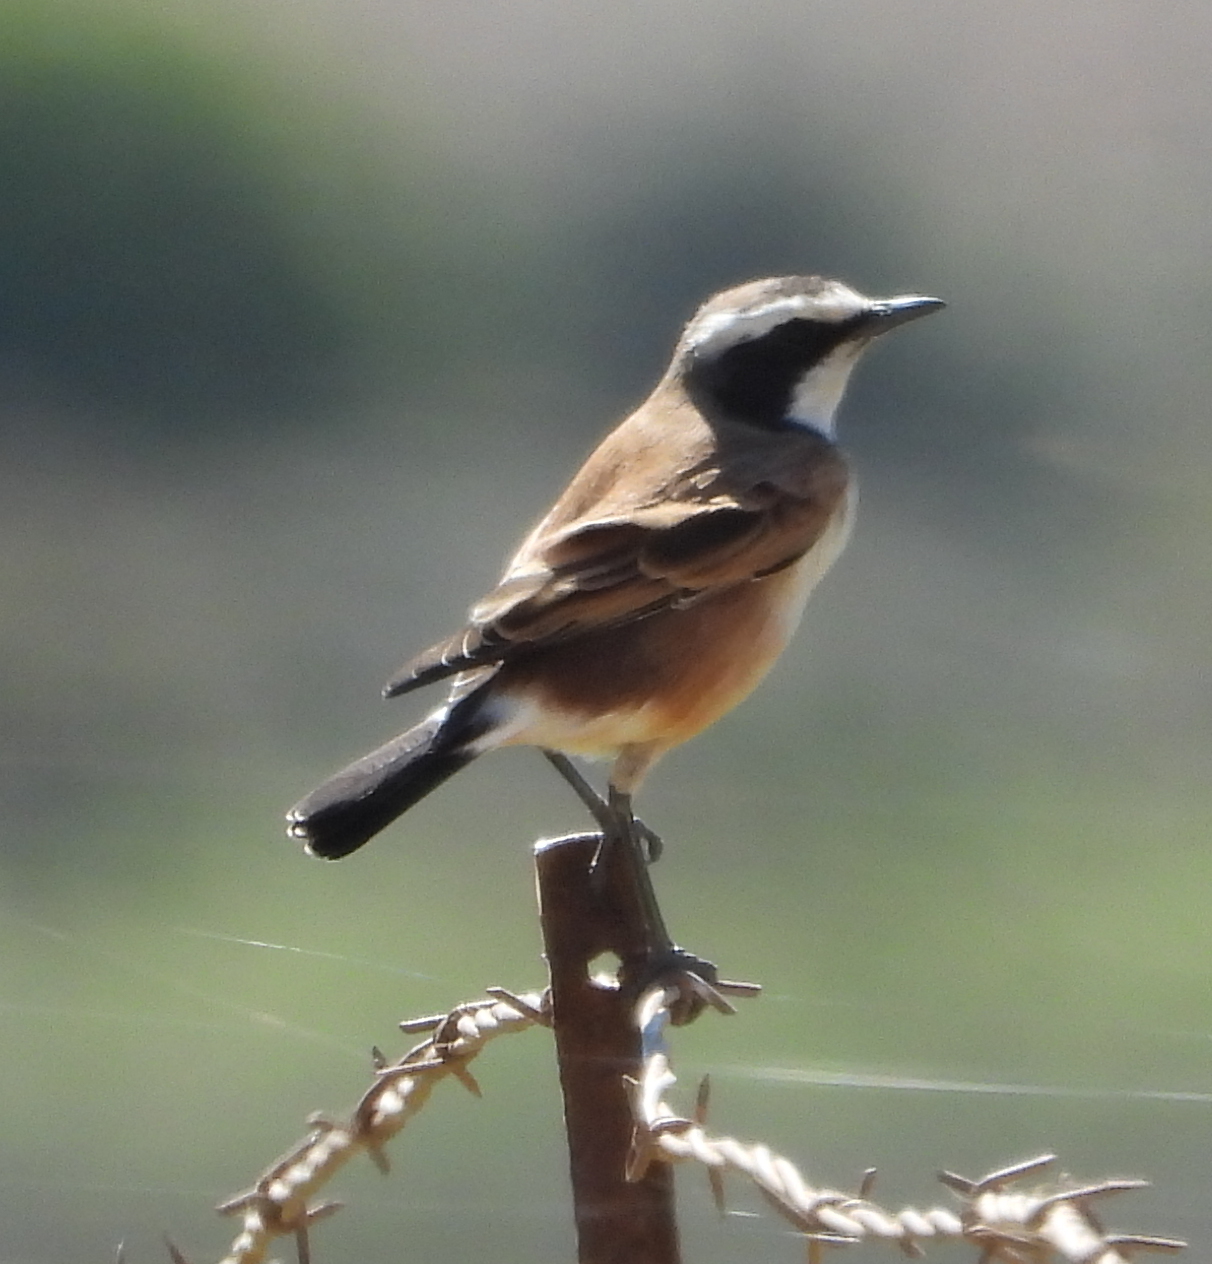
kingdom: Animalia
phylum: Chordata
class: Aves
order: Passeriformes
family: Muscicapidae
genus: Oenanthe
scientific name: Oenanthe pileata
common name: Capped wheatear
